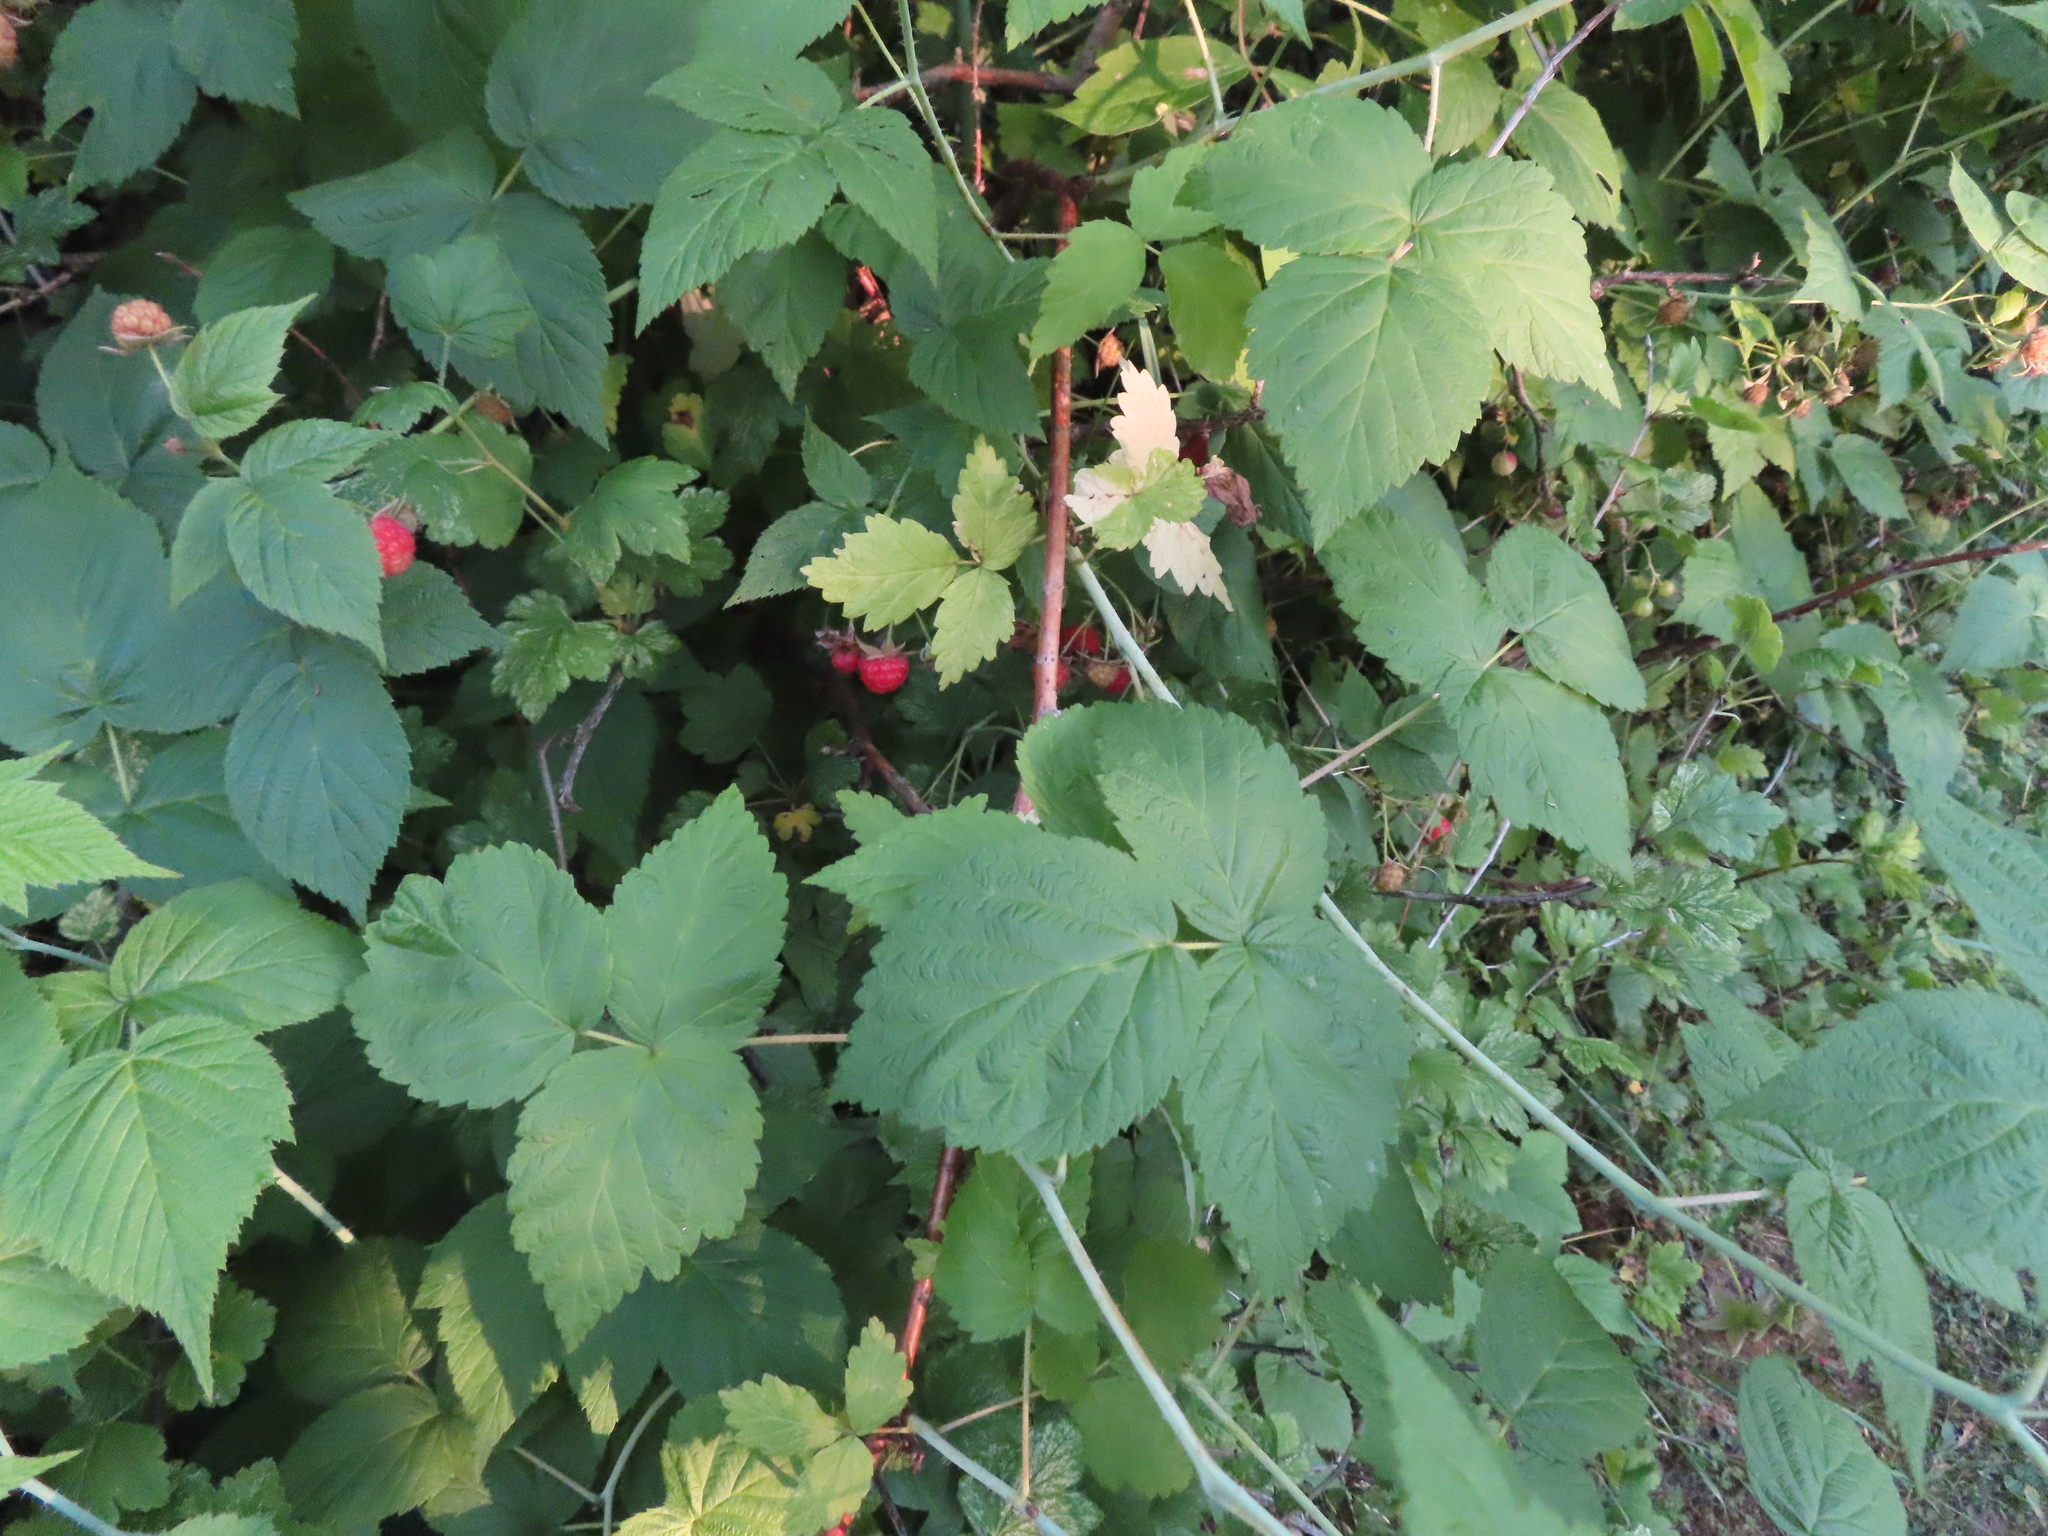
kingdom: Plantae
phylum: Tracheophyta
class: Magnoliopsida
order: Rosales
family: Rosaceae
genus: Rubus
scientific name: Rubus occidentalis
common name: Black raspberry
